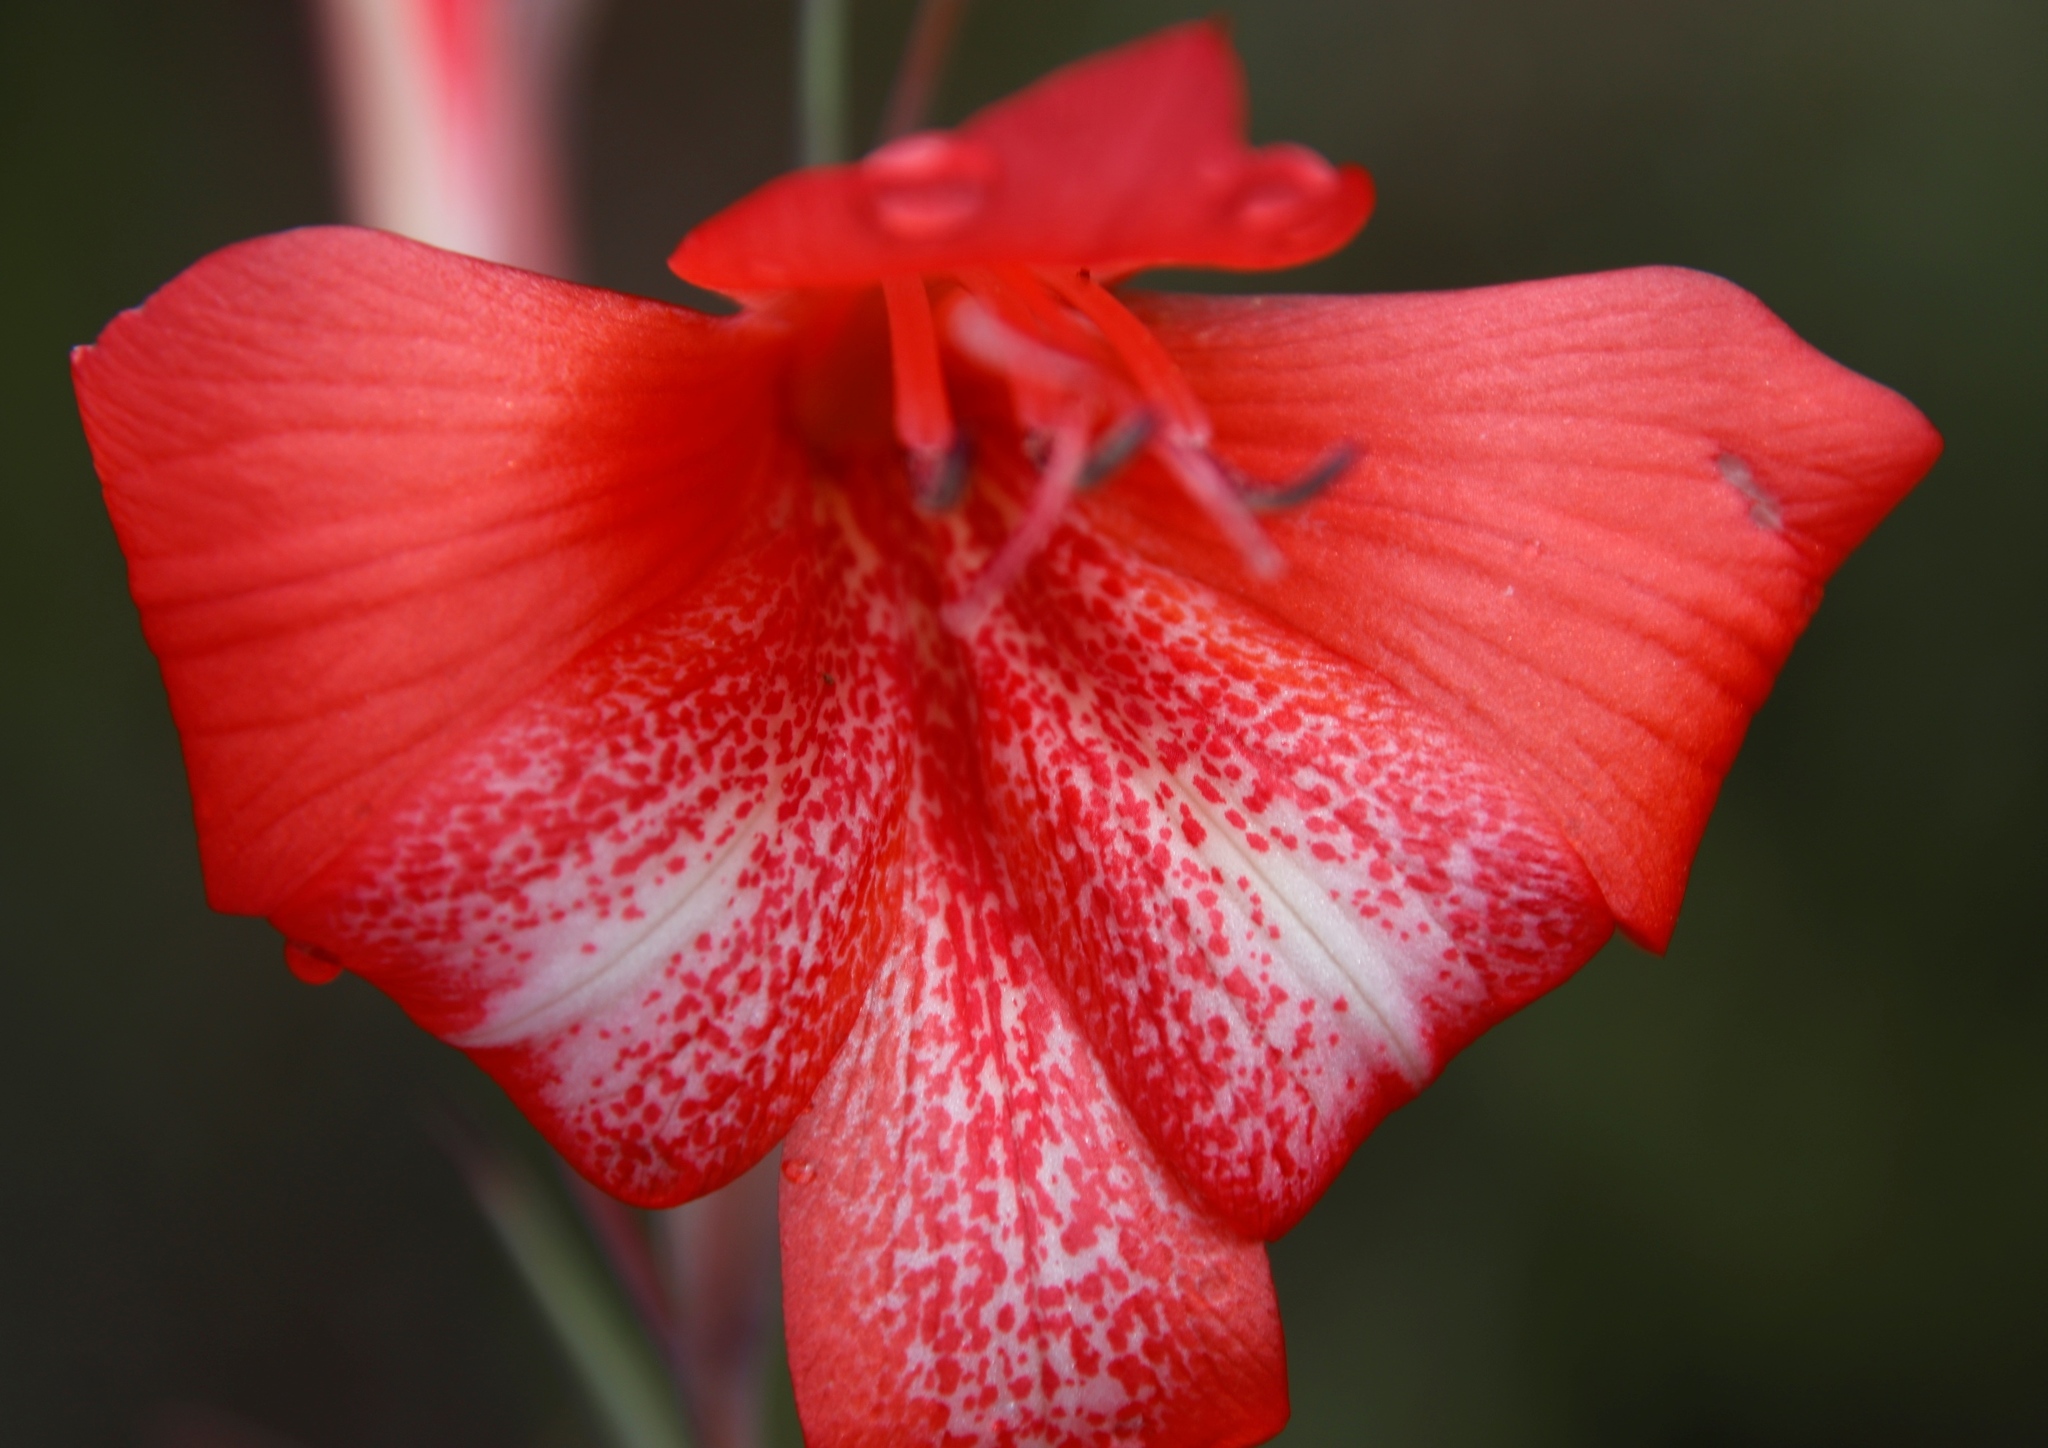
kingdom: Plantae
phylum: Tracheophyta
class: Liliopsida
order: Asparagales
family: Iridaceae
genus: Gladiolus
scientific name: Gladiolus saundersii
